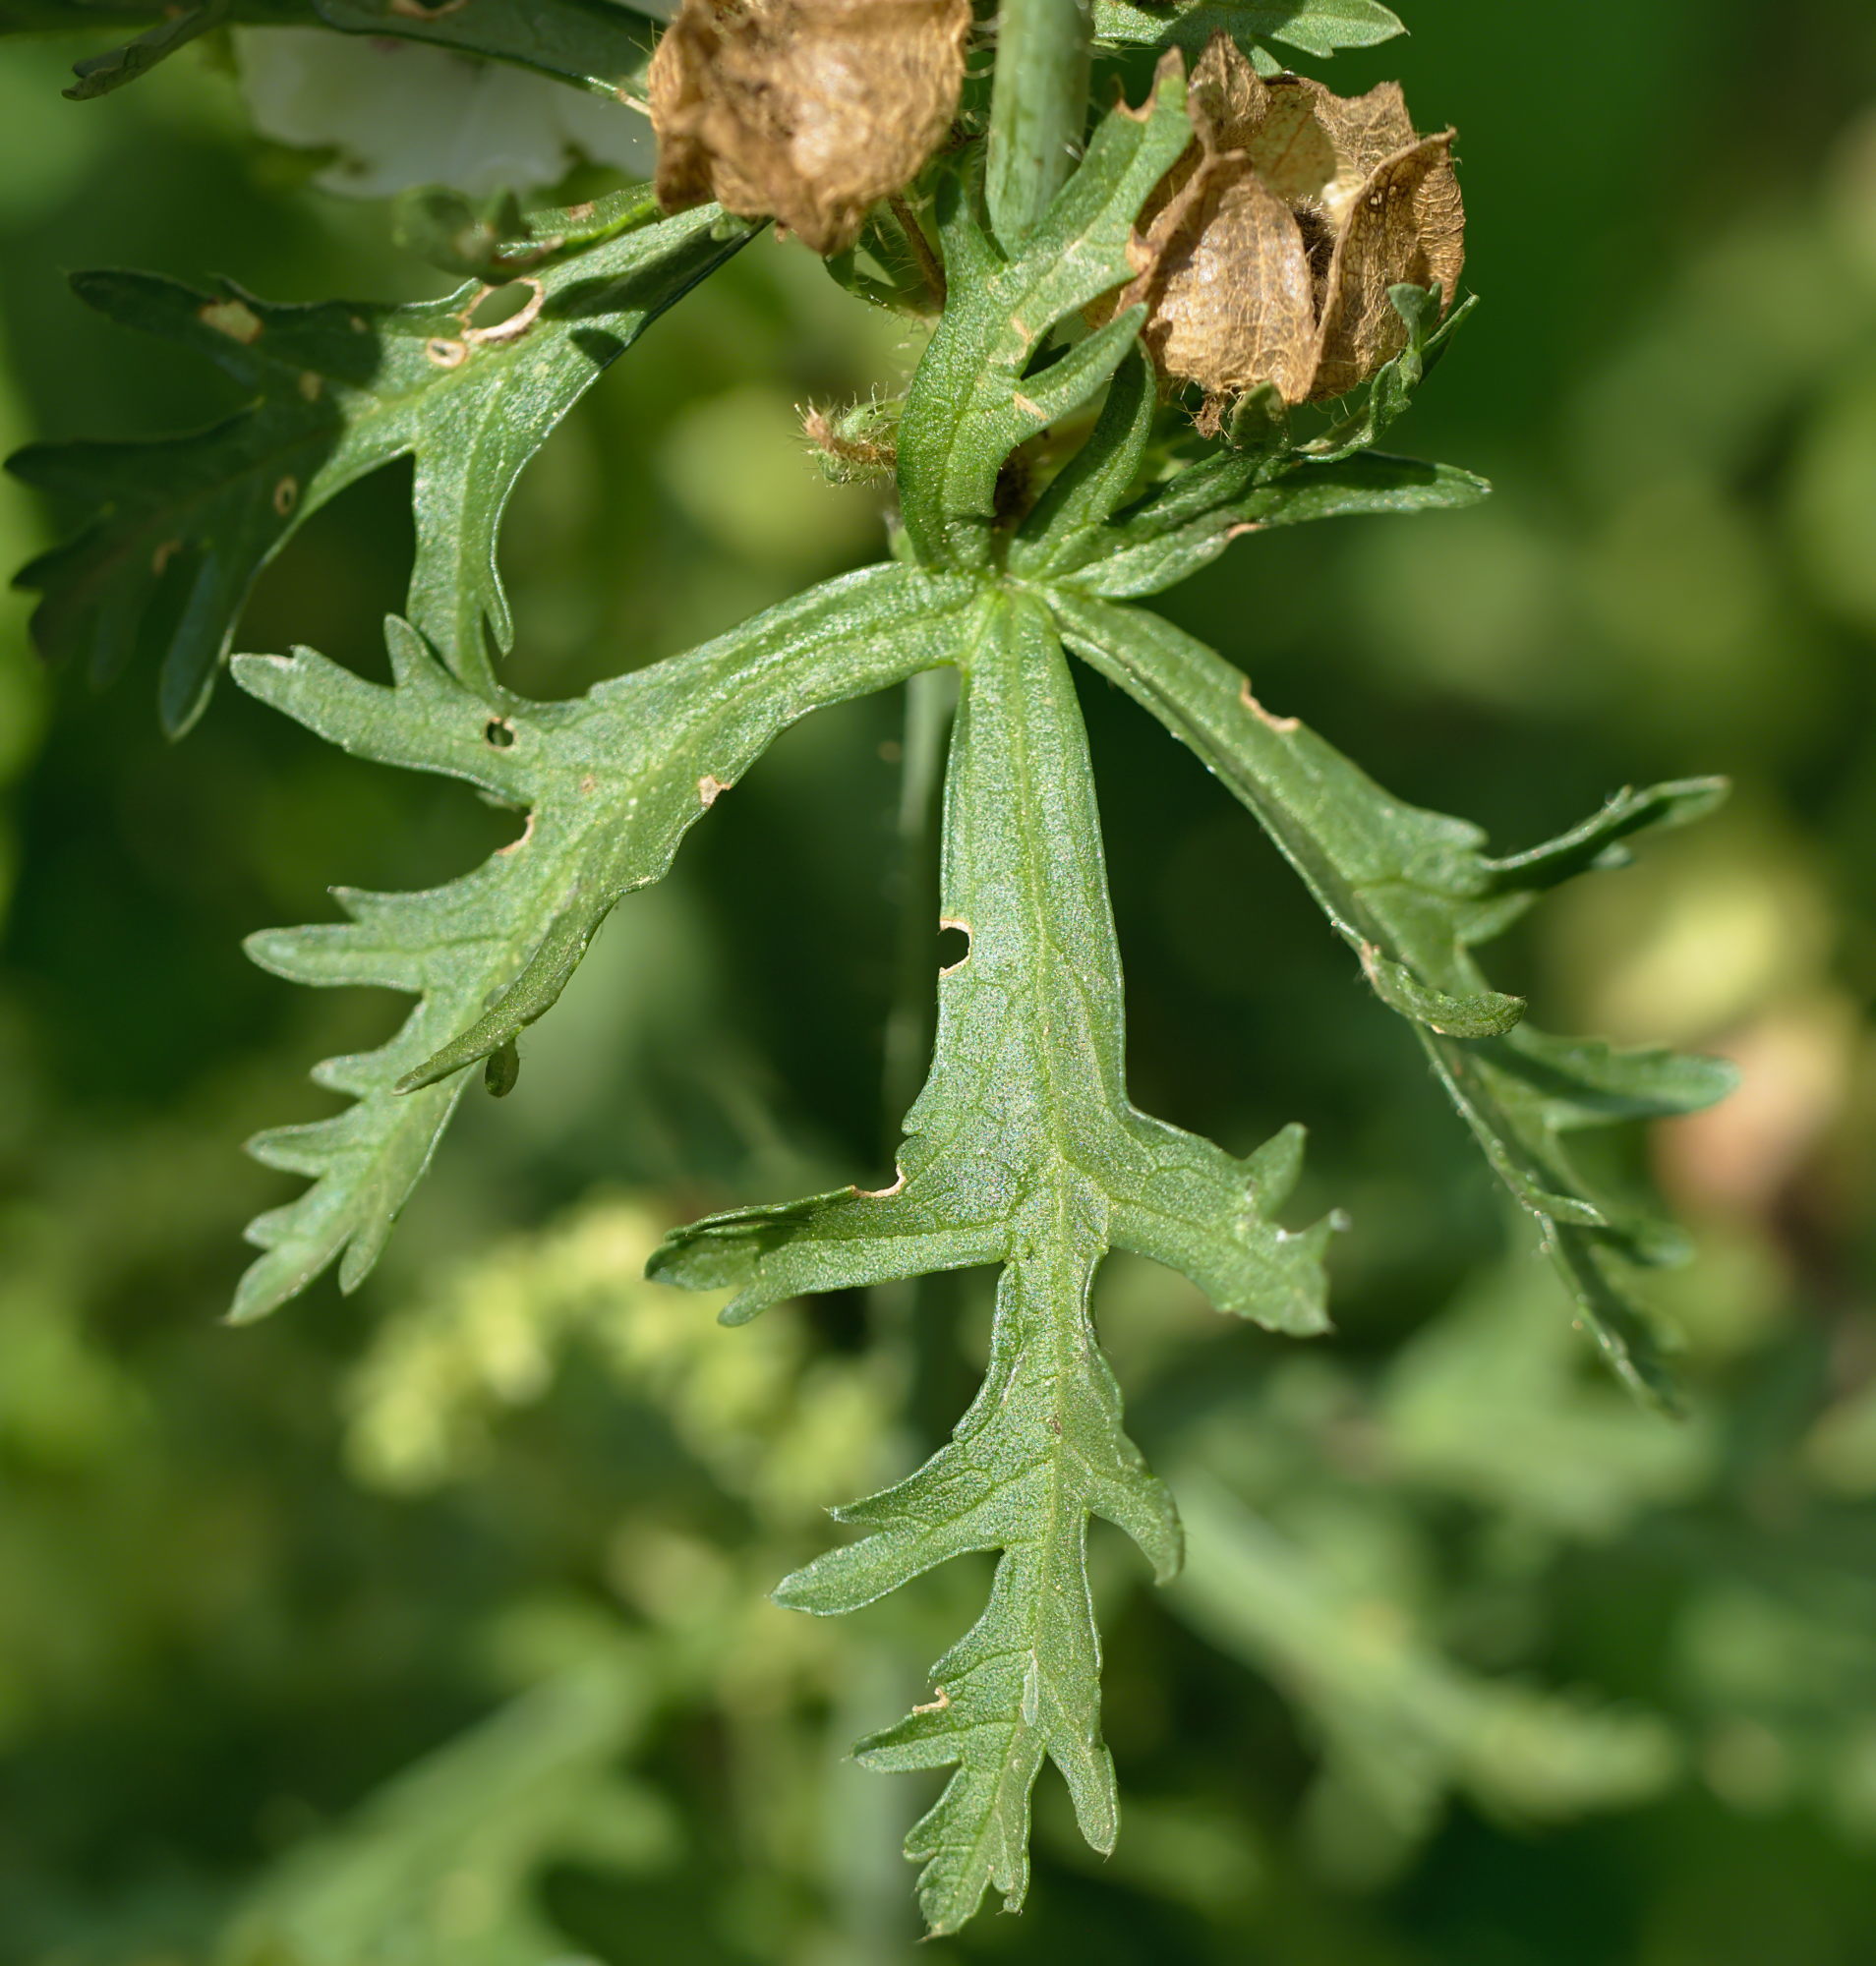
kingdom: Plantae
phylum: Tracheophyta
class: Magnoliopsida
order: Malvales
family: Malvaceae
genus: Malva
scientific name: Malva moschata
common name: Musk mallow
